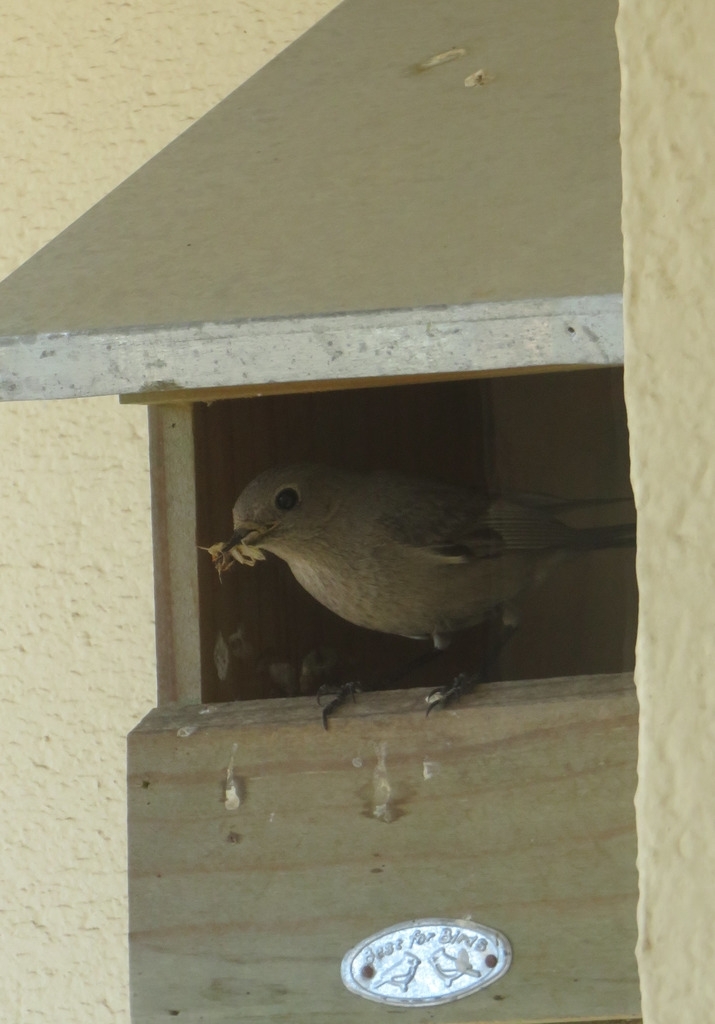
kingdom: Animalia
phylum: Chordata
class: Aves
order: Passeriformes
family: Muscicapidae
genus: Phoenicurus
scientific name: Phoenicurus ochruros
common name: Black redstart
